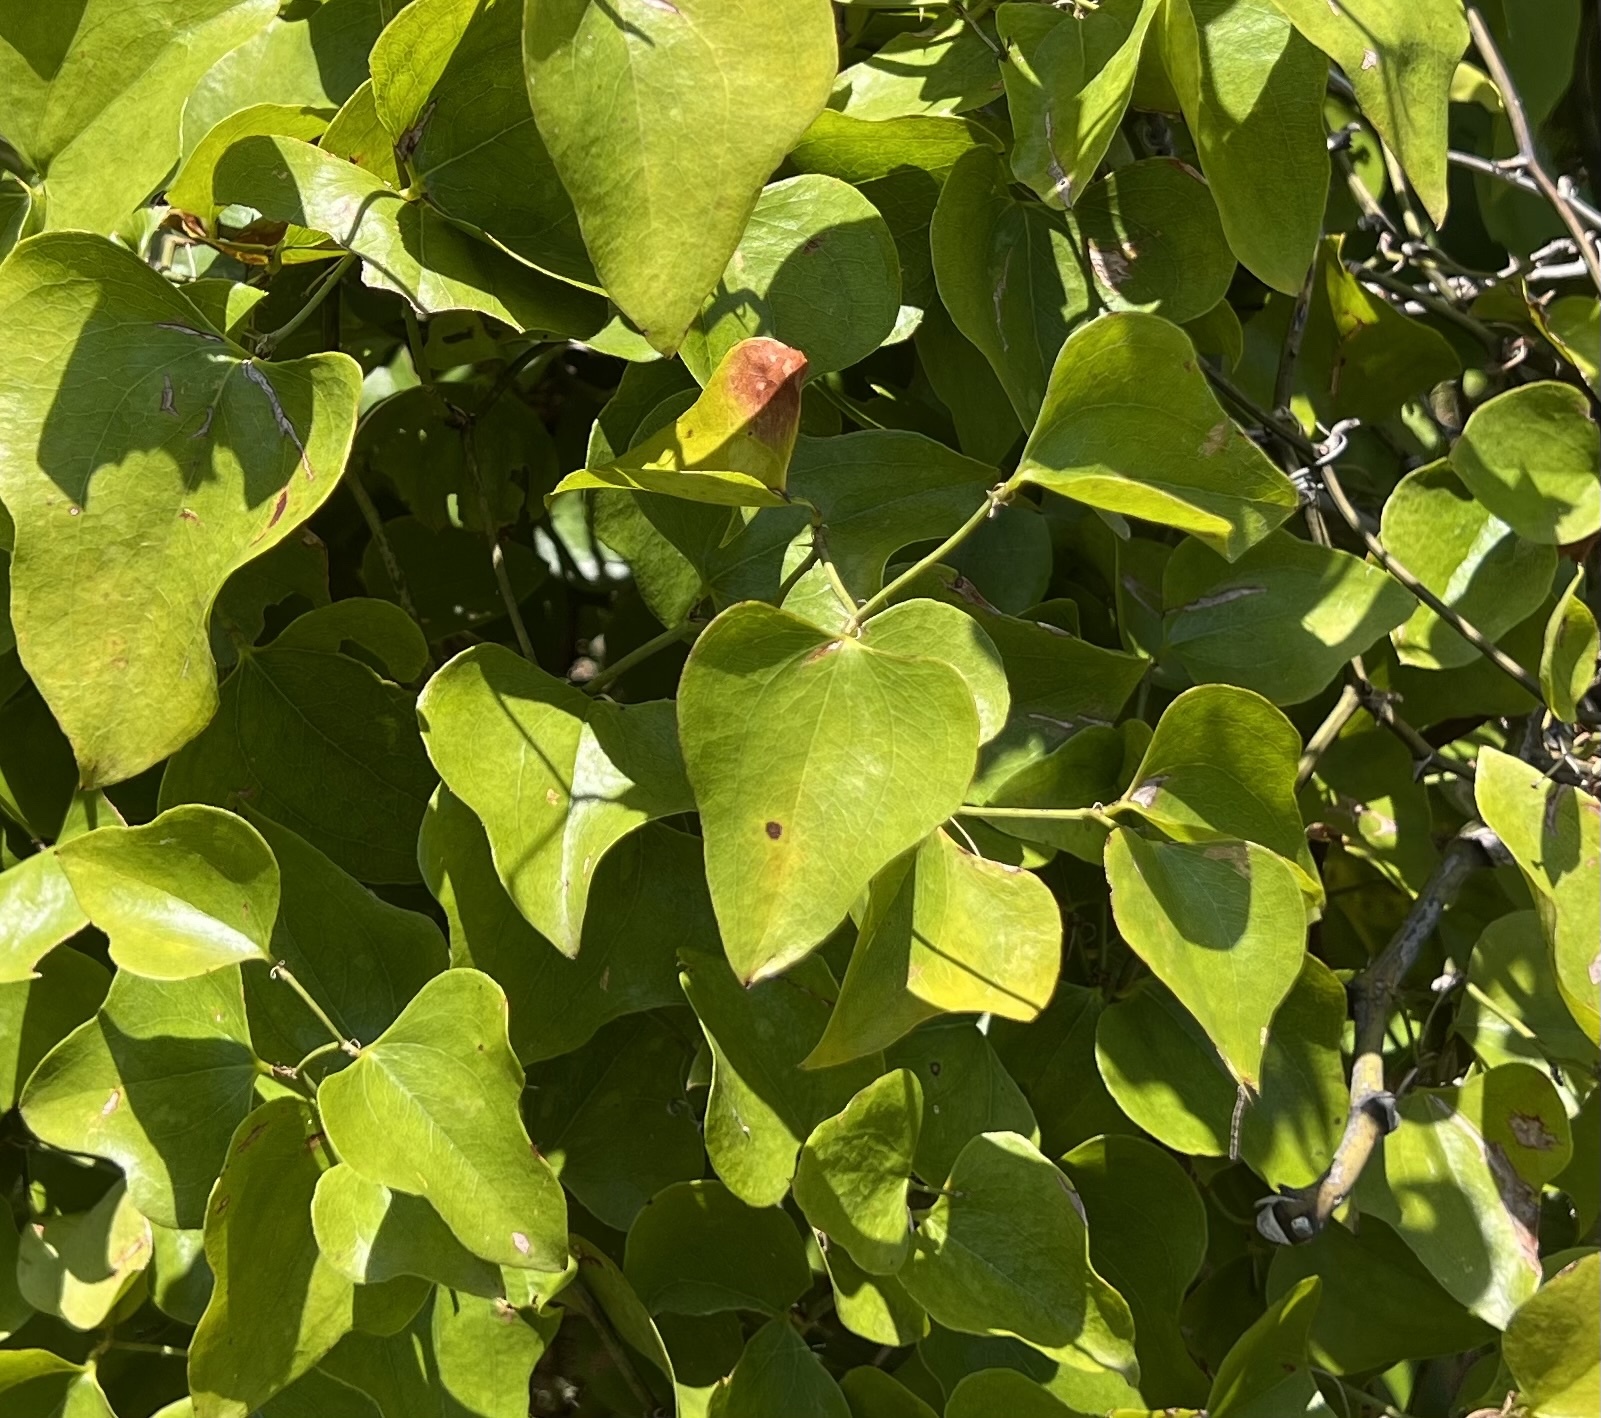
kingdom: Plantae
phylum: Tracheophyta
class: Liliopsida
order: Liliales
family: Smilacaceae
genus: Smilax
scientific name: Smilax bona-nox
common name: Catbrier
